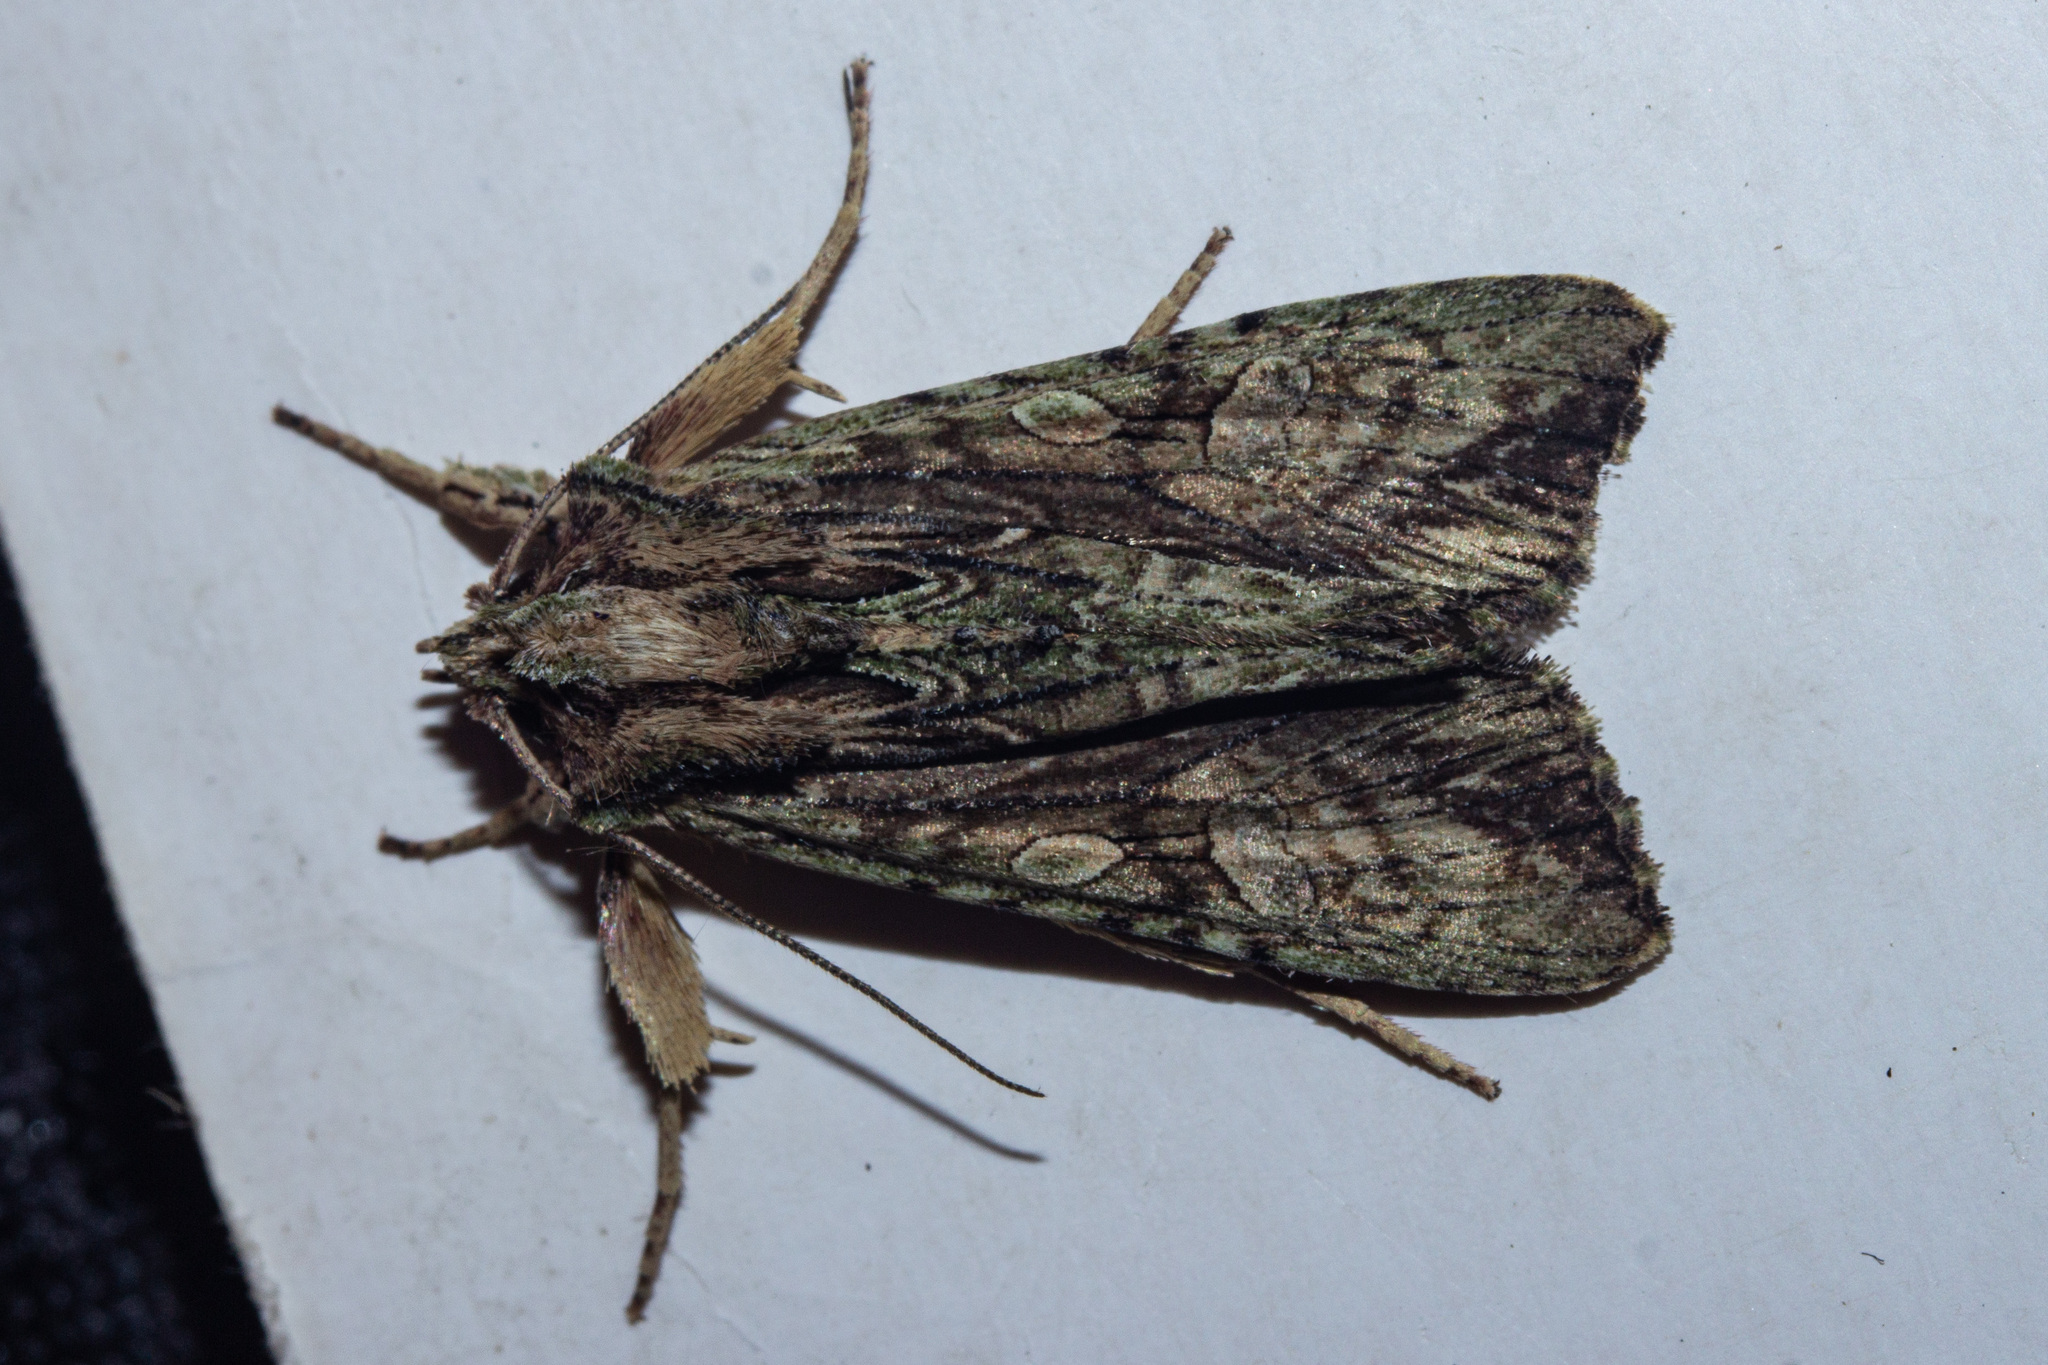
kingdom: Animalia
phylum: Arthropoda
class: Insecta
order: Lepidoptera
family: Noctuidae
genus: Meterana
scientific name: Meterana decorata
